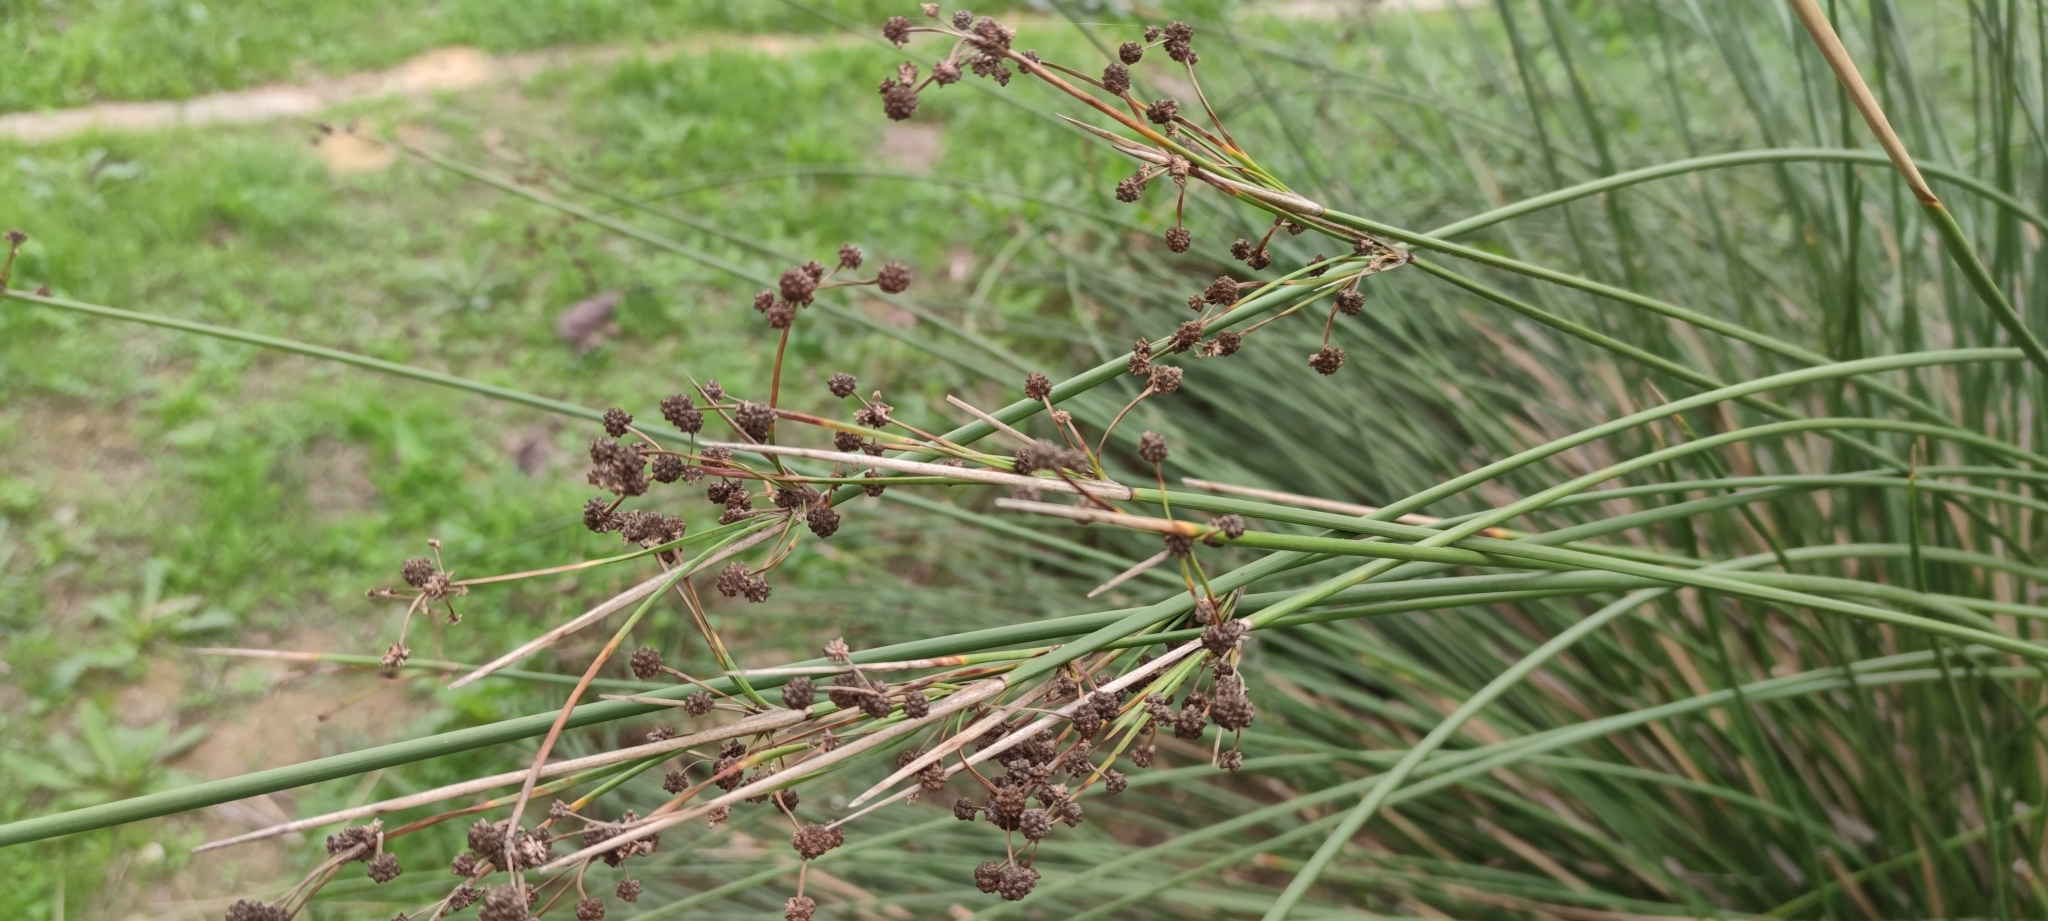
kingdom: Plantae
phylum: Tracheophyta
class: Liliopsida
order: Poales
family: Cyperaceae
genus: Scirpoides
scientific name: Scirpoides holoschoenus
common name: Round-headed club-rush
